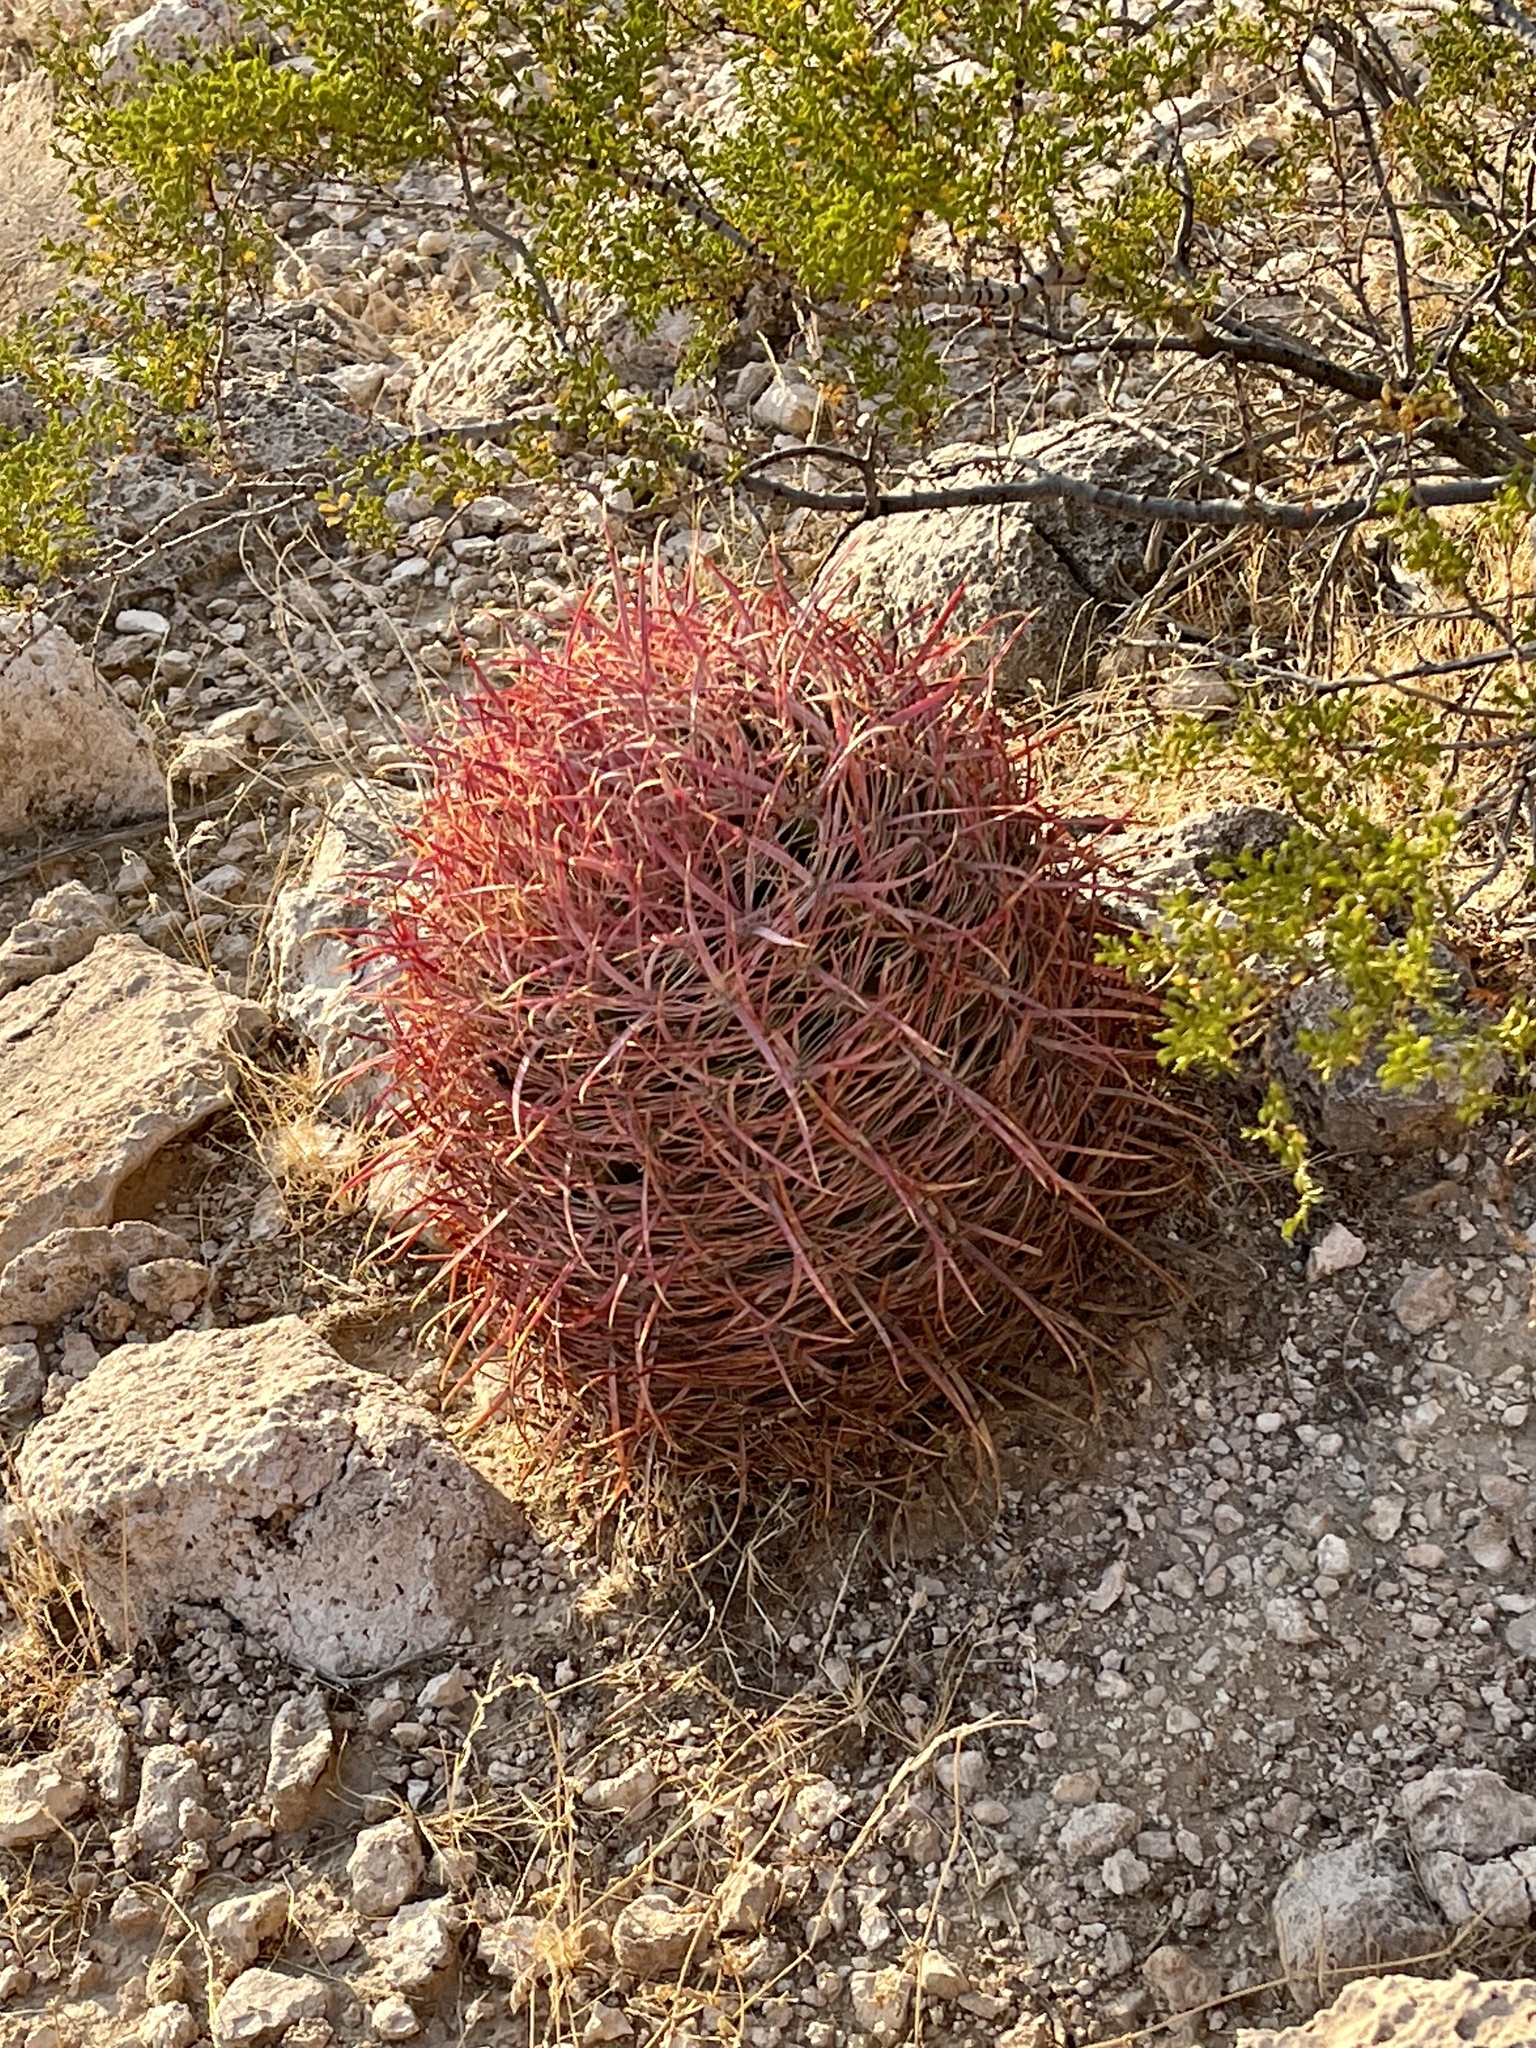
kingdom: Plantae
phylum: Tracheophyta
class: Magnoliopsida
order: Caryophyllales
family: Cactaceae
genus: Ferocactus
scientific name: Ferocactus cylindraceus
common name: California barrel cactus
